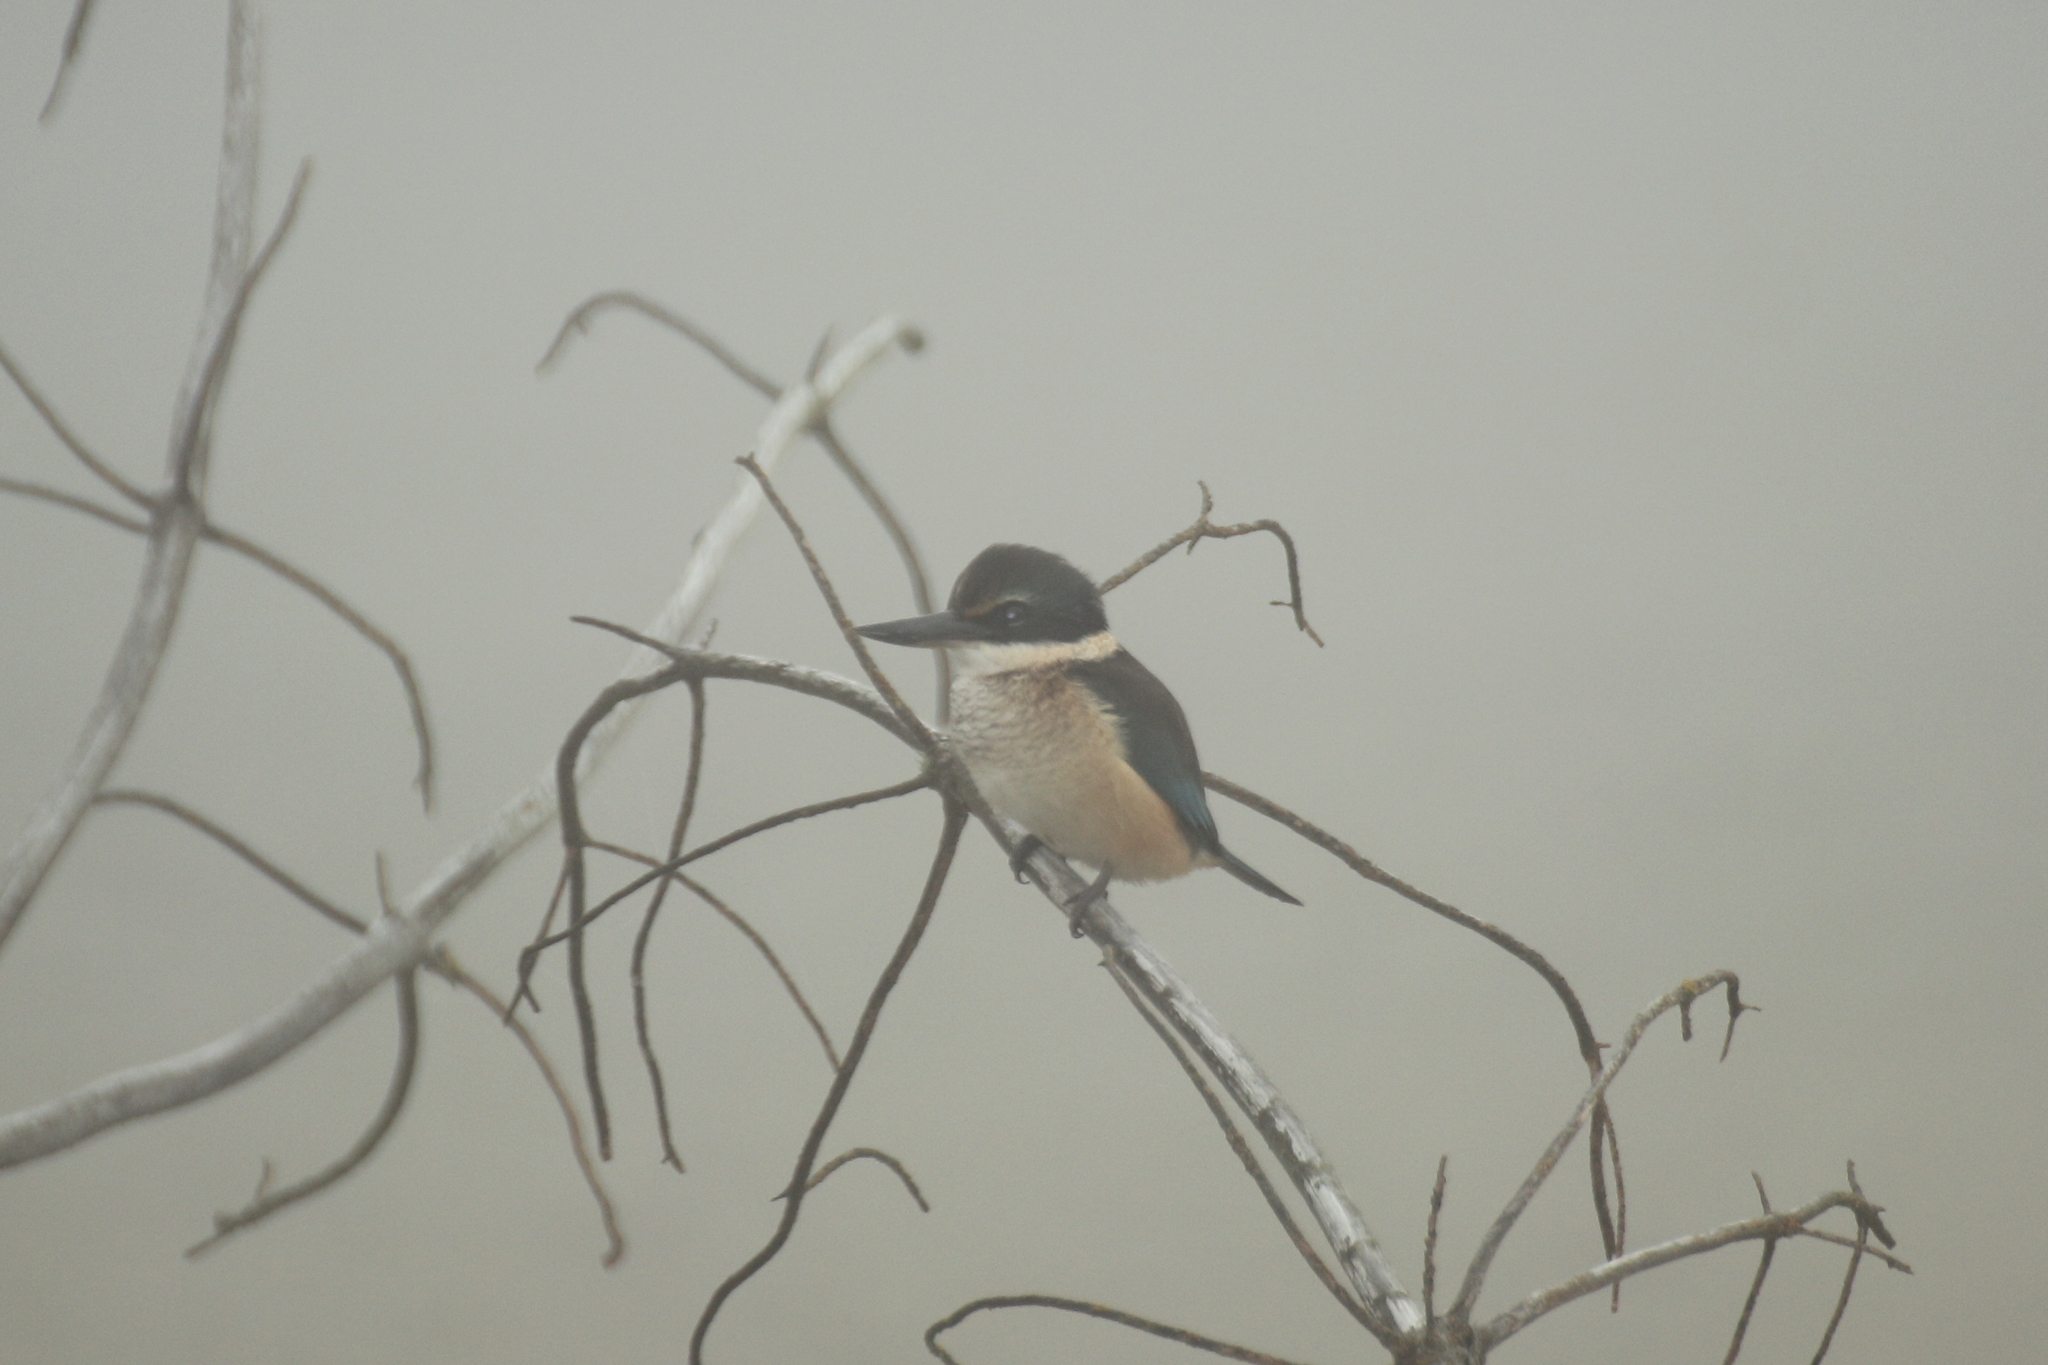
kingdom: Animalia
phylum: Chordata
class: Aves
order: Coraciiformes
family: Alcedinidae
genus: Todiramphus
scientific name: Todiramphus sanctus
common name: Sacred kingfisher
